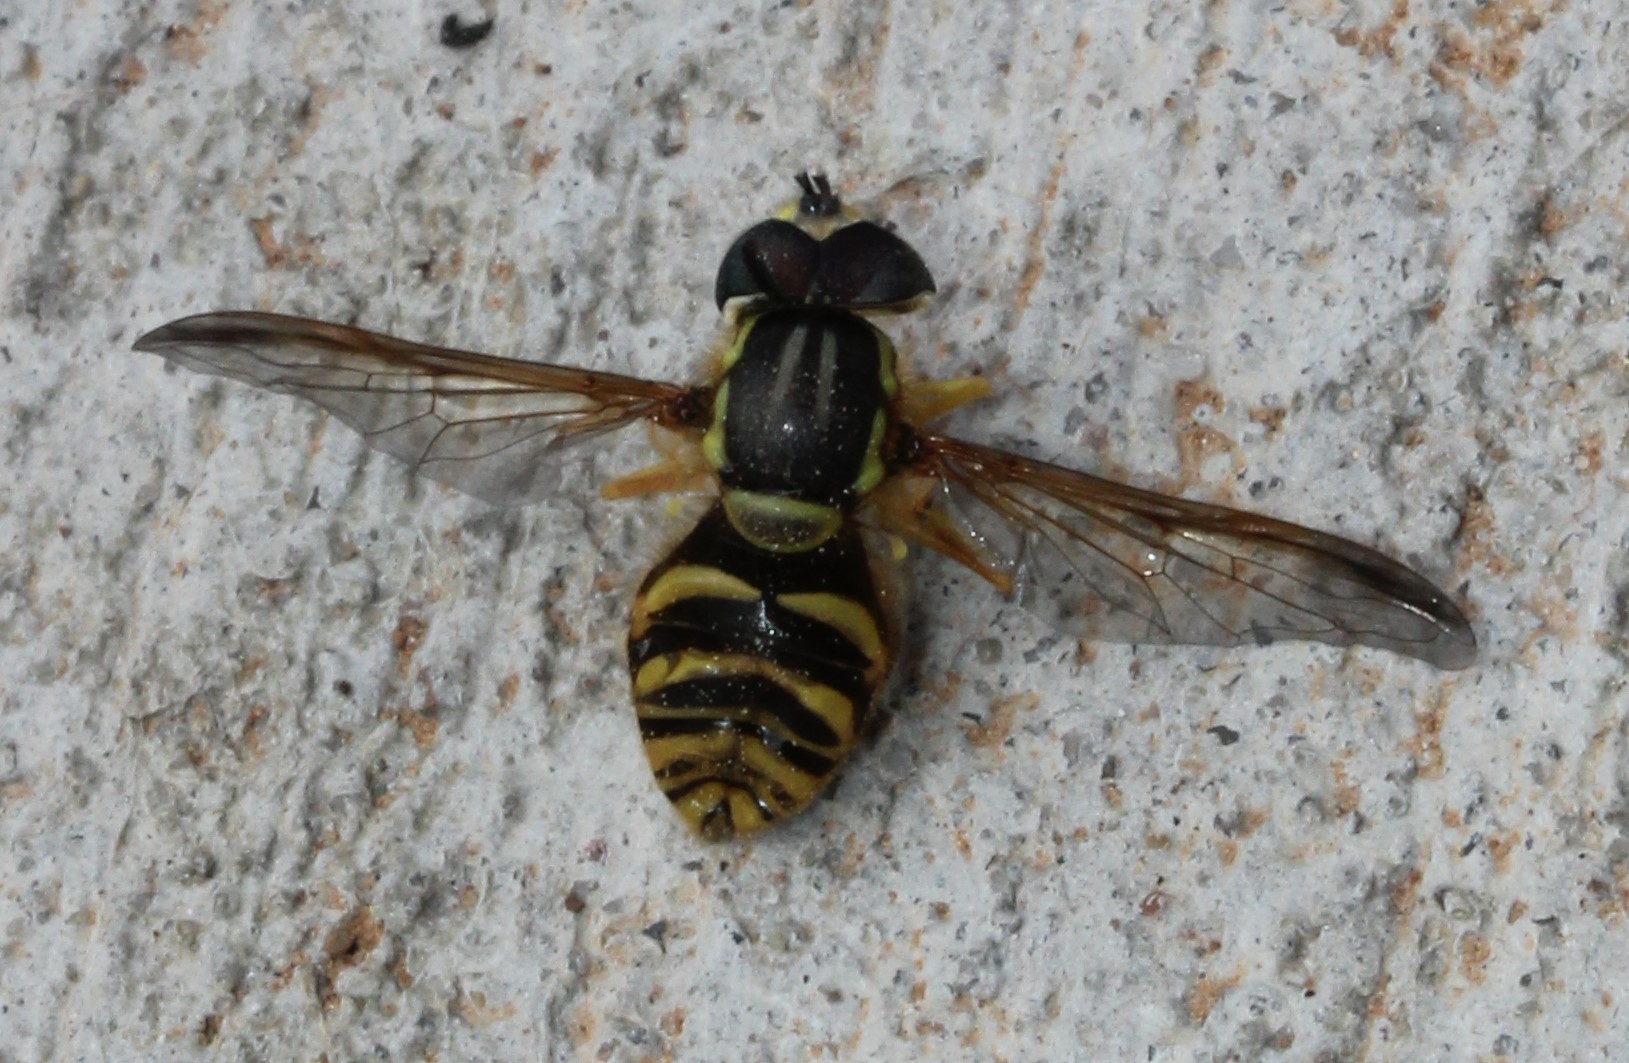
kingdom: Animalia
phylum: Arthropoda
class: Insecta
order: Diptera
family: Syrphidae
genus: Chrysotoxum
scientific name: Chrysotoxum
